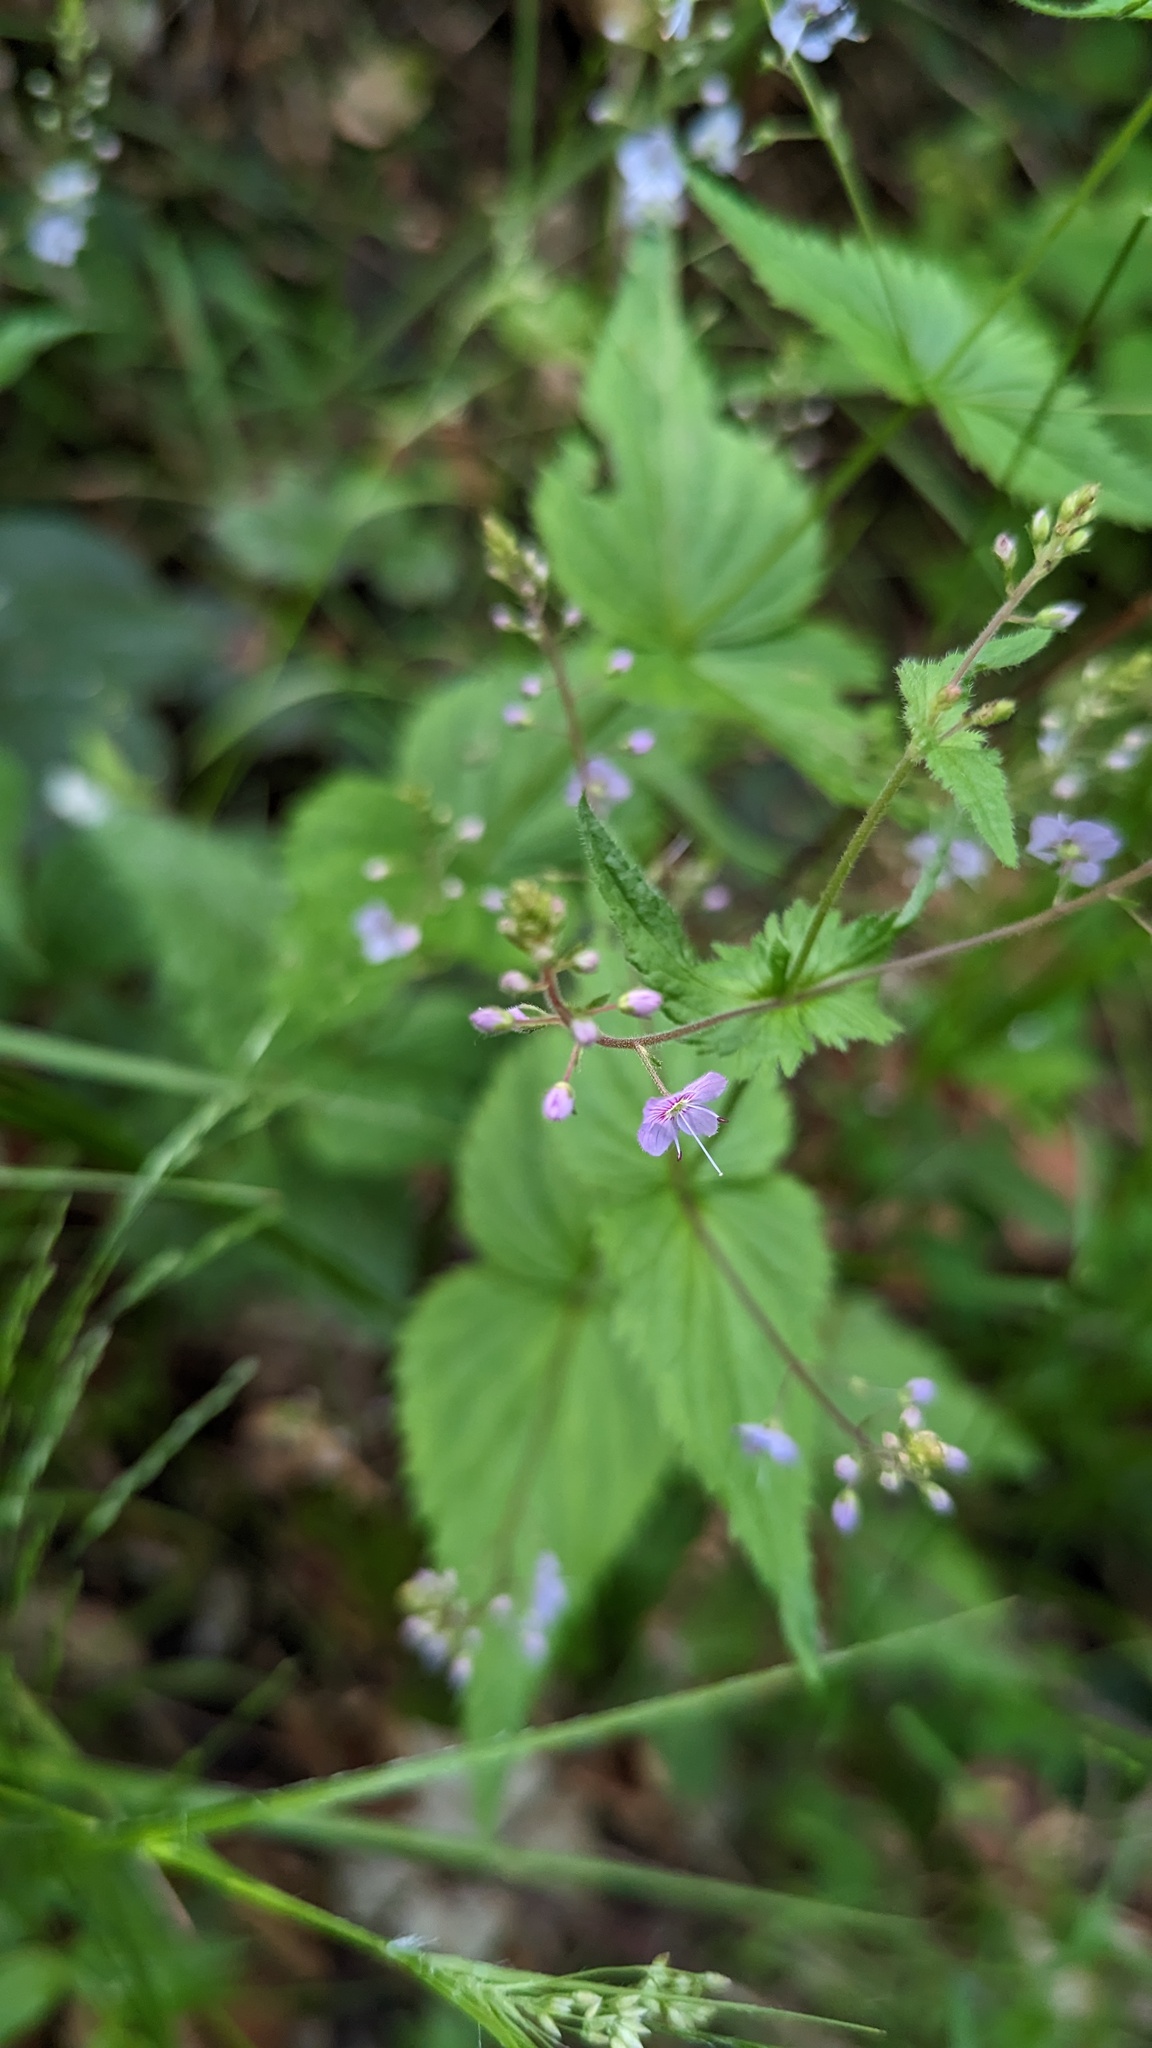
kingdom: Plantae
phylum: Tracheophyta
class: Magnoliopsida
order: Lamiales
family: Plantaginaceae
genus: Veronica
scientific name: Veronica urticifolia
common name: Nettle-leaf speedwell
